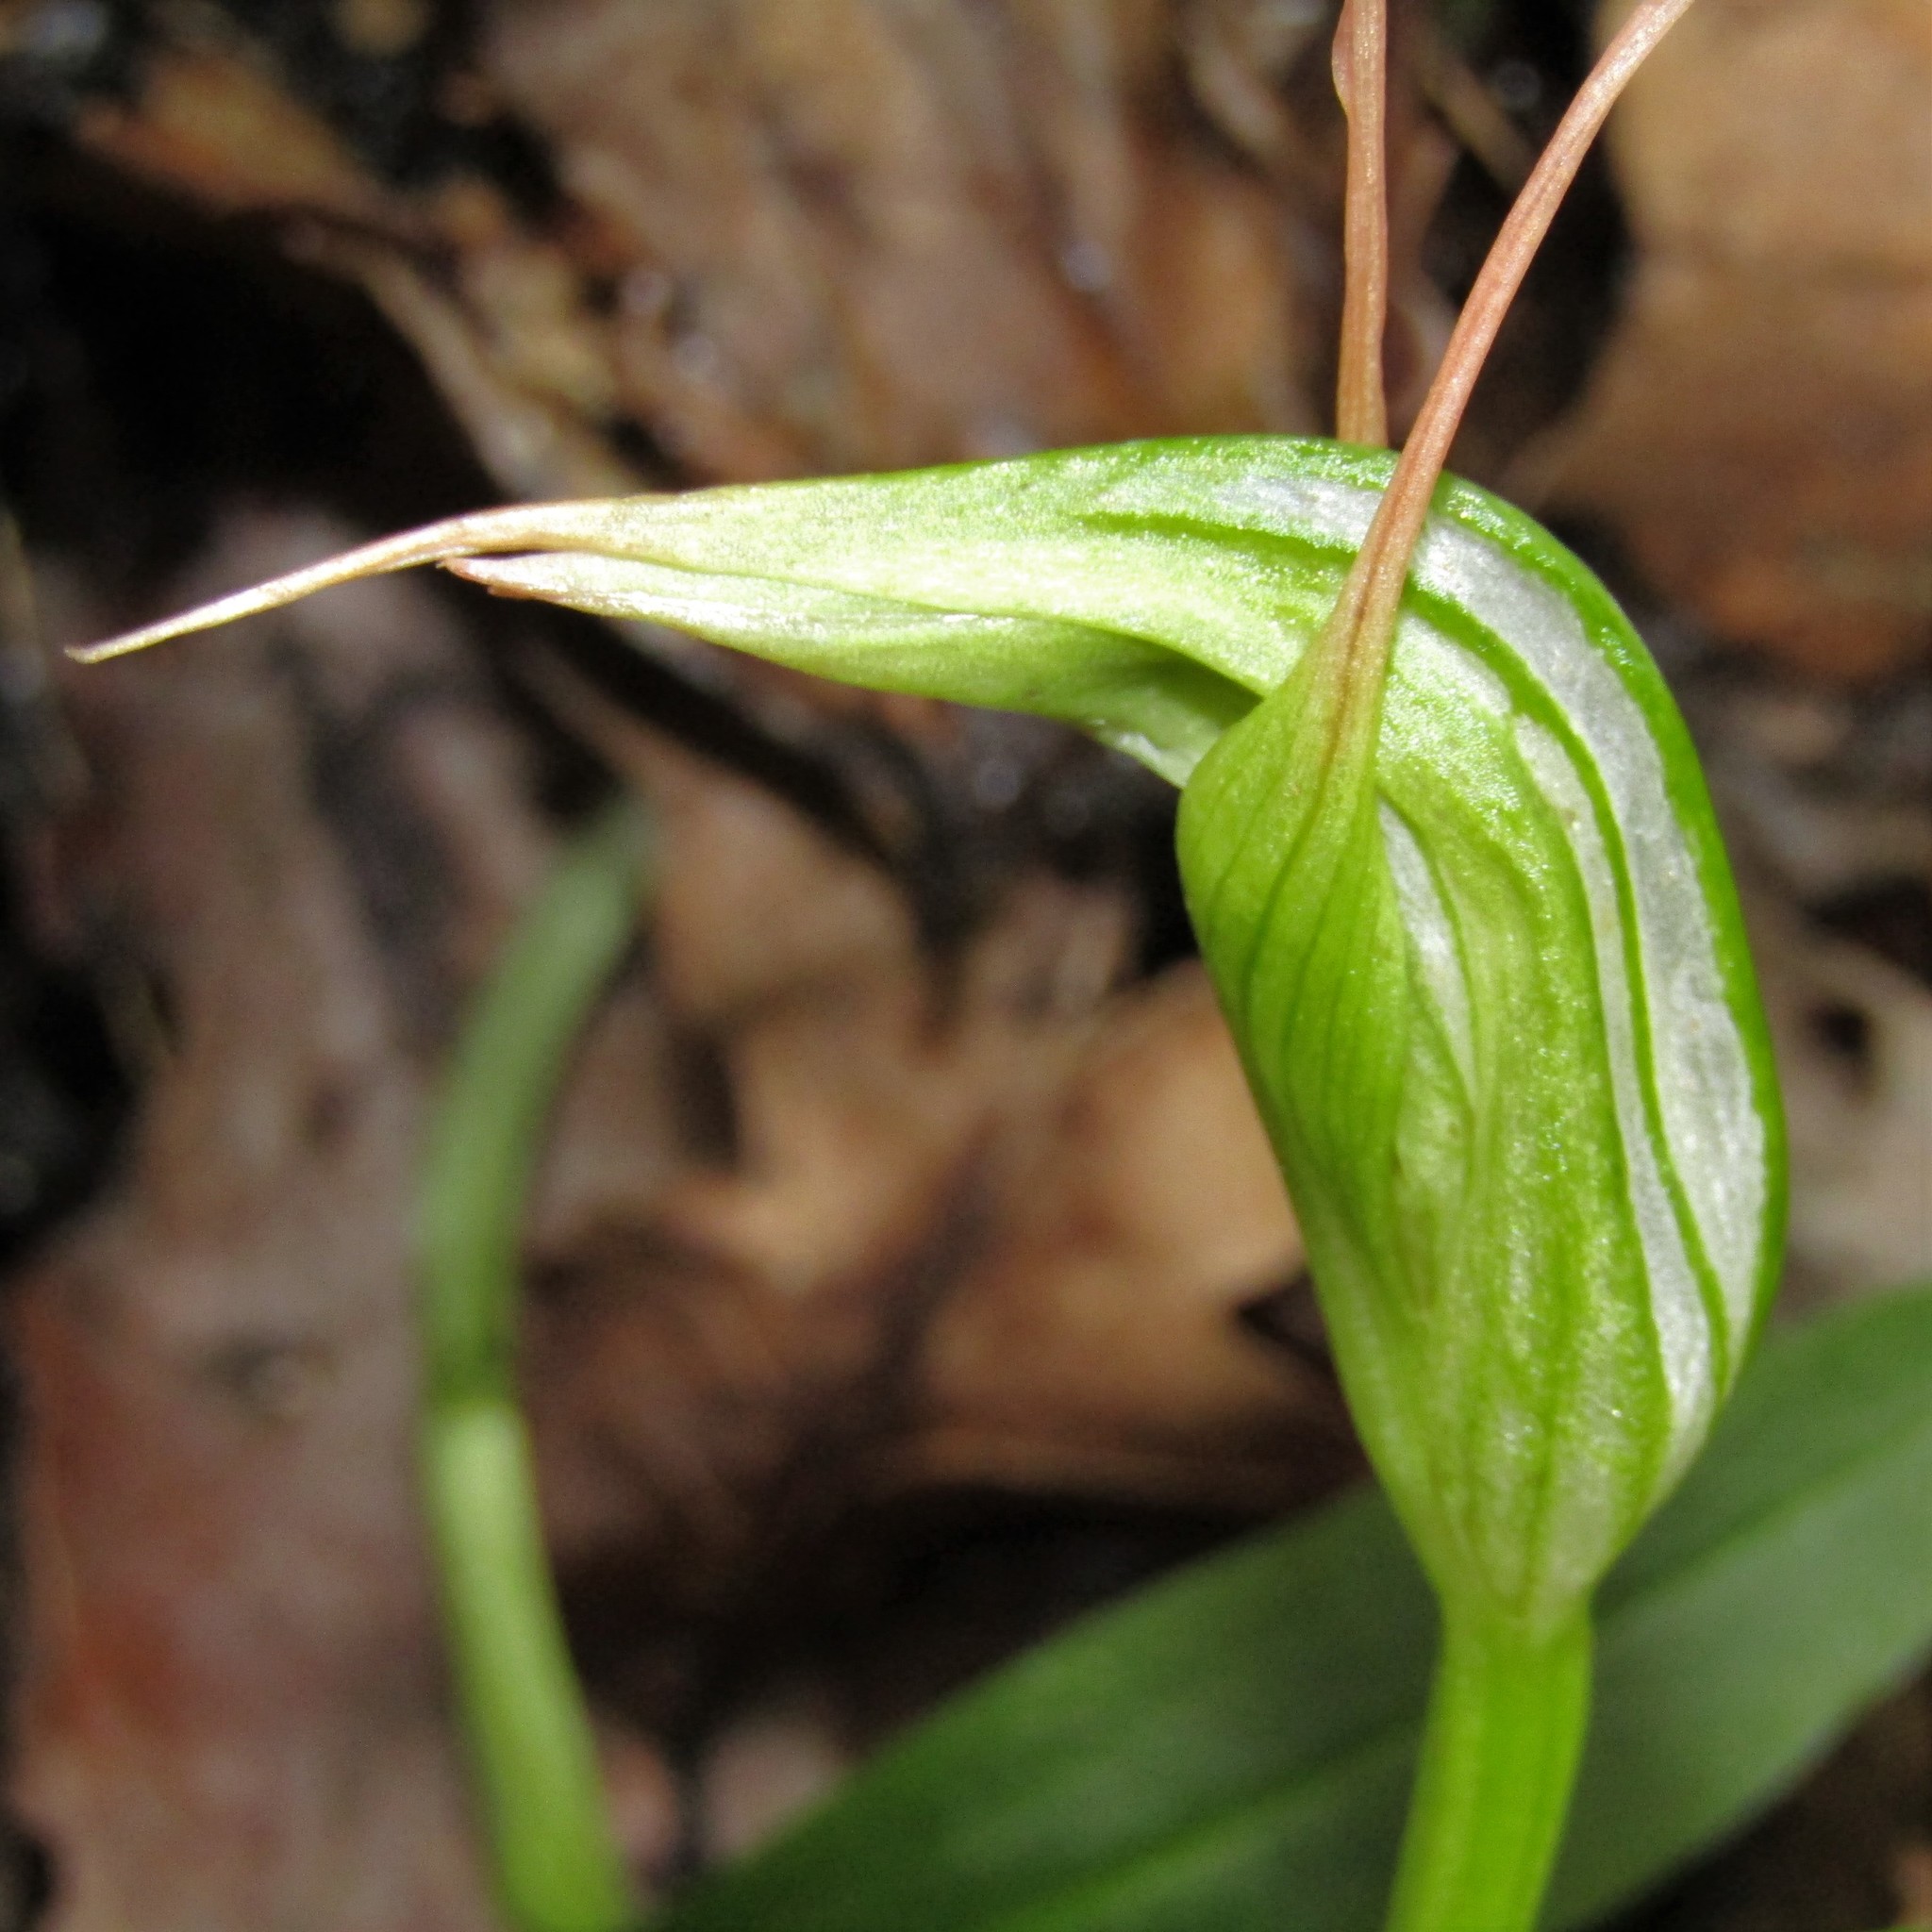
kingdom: Plantae
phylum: Tracheophyta
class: Liliopsida
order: Asparagales
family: Orchidaceae
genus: Pterostylis
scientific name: Pterostylis banksii
